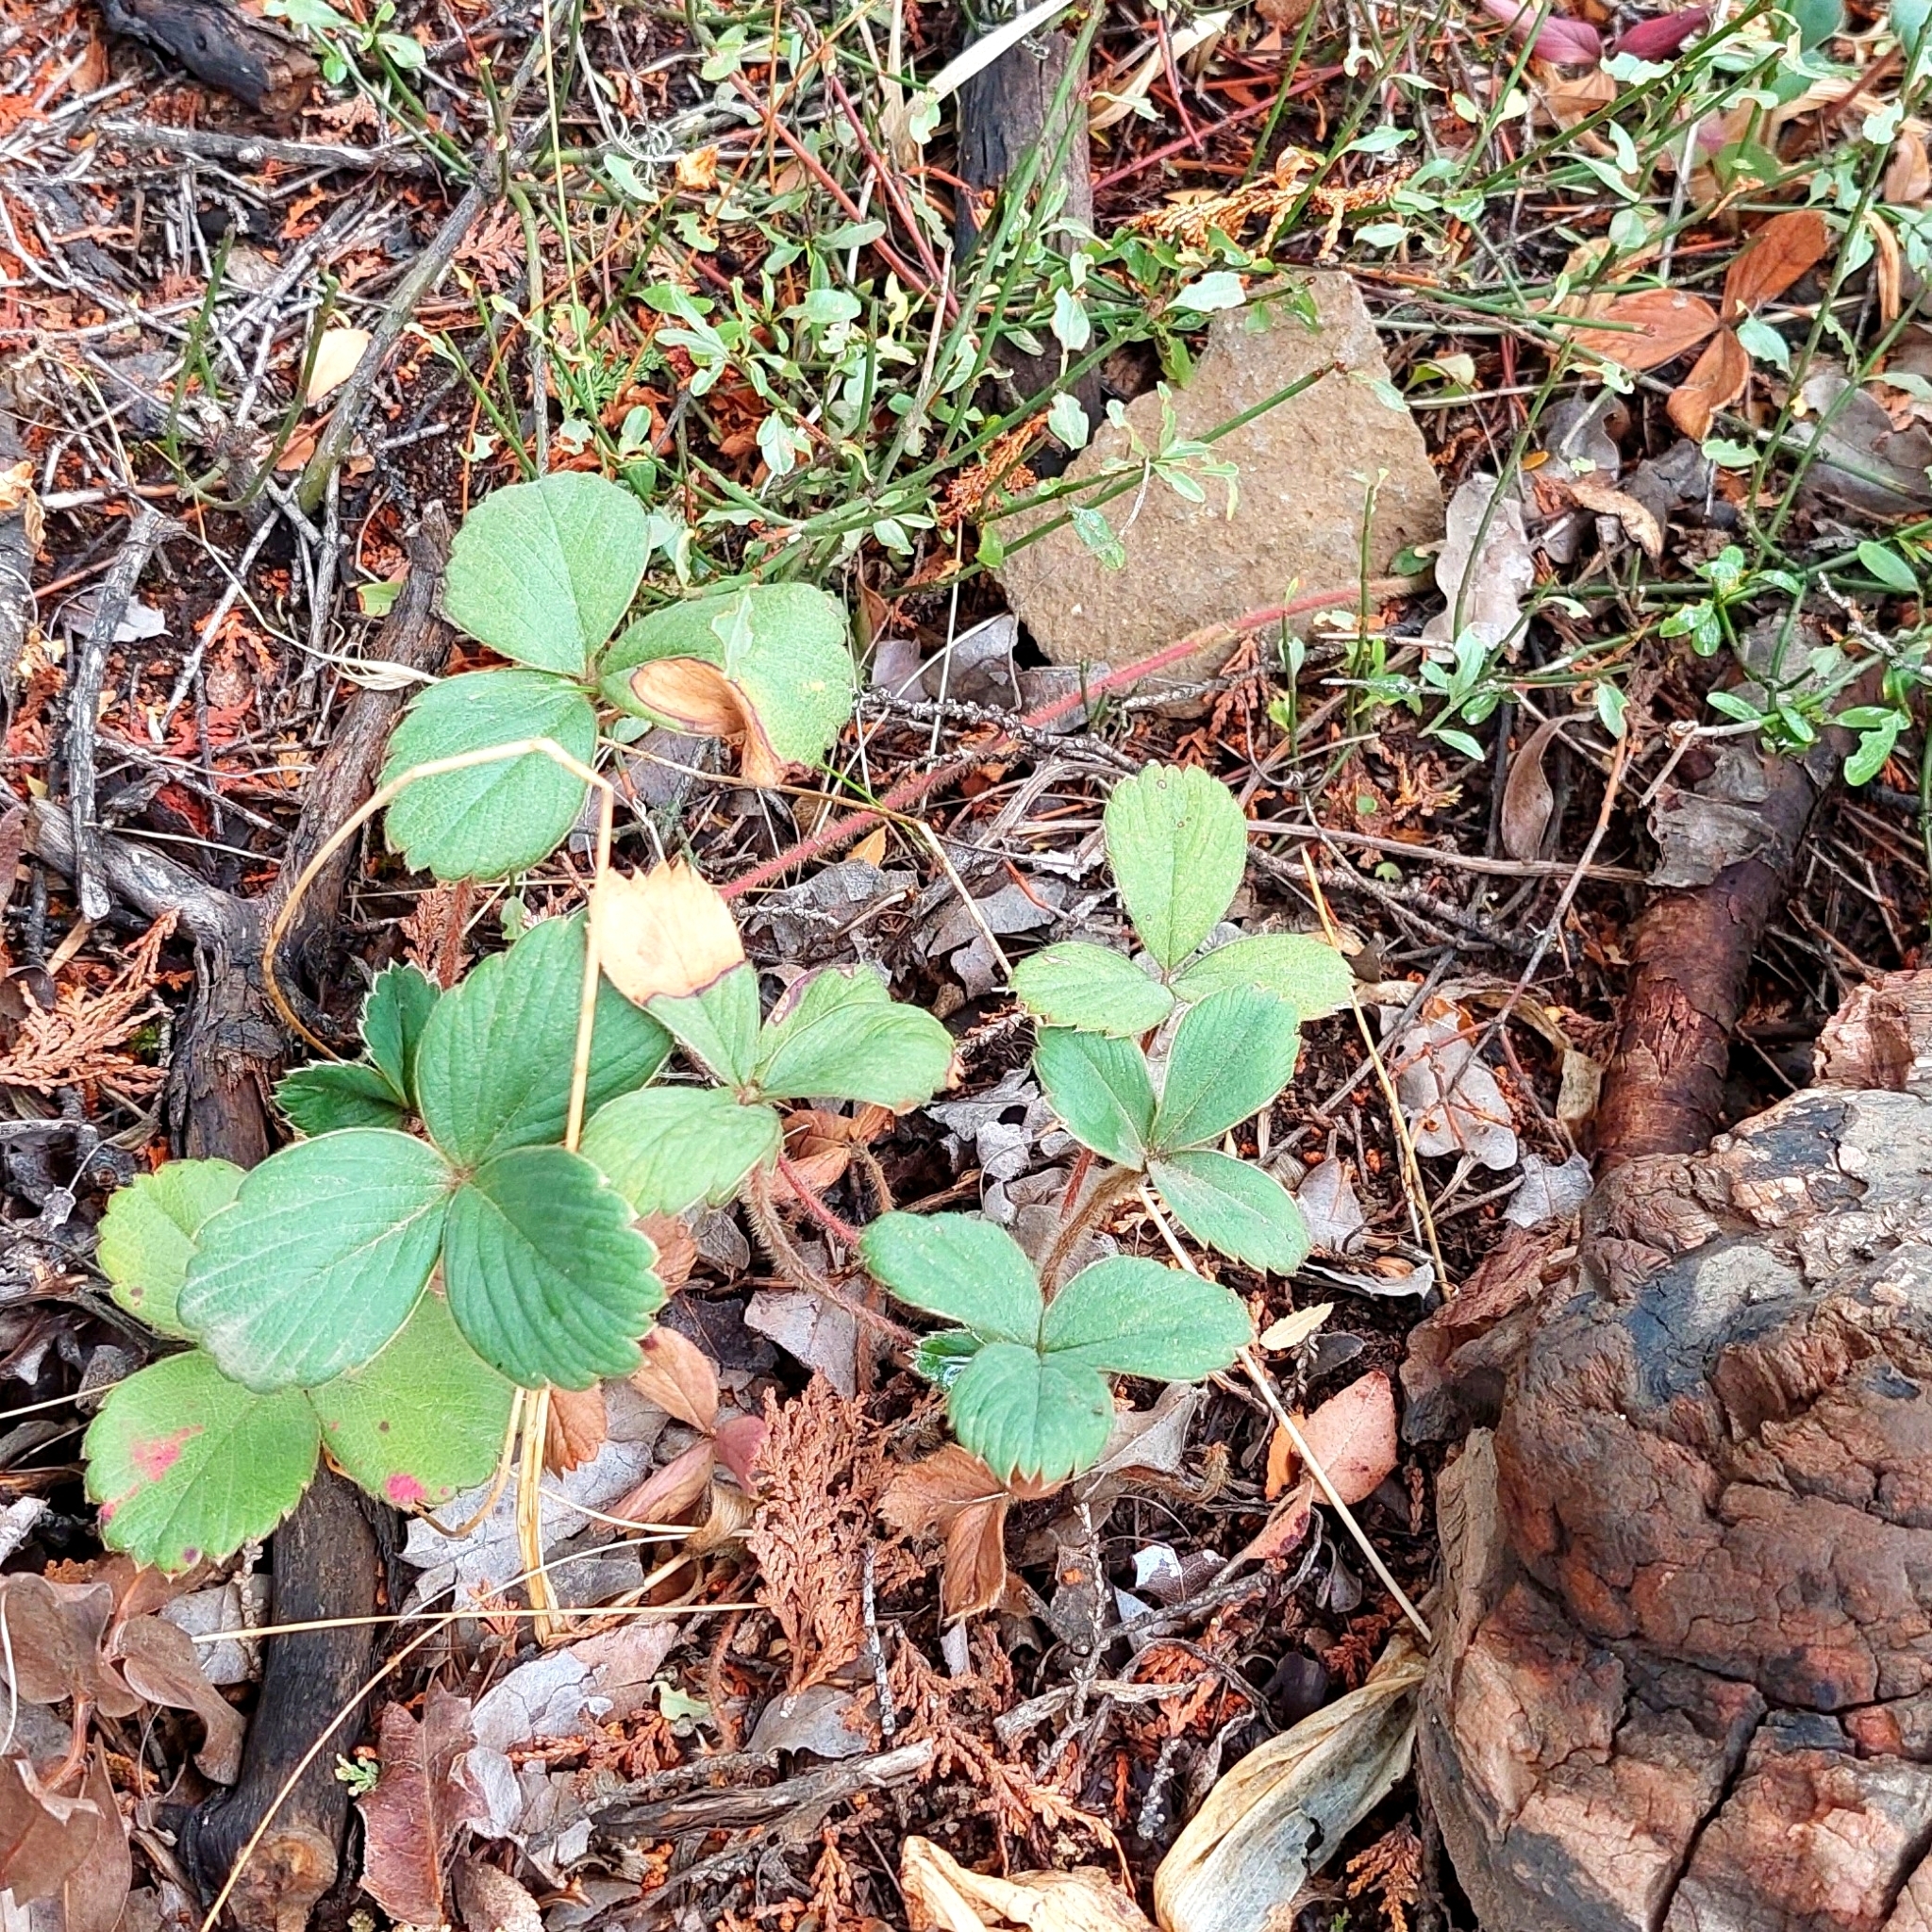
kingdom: Plantae
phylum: Tracheophyta
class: Magnoliopsida
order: Rosales
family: Rosaceae
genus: Fragaria
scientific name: Fragaria chiloensis
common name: Beach strawberry
